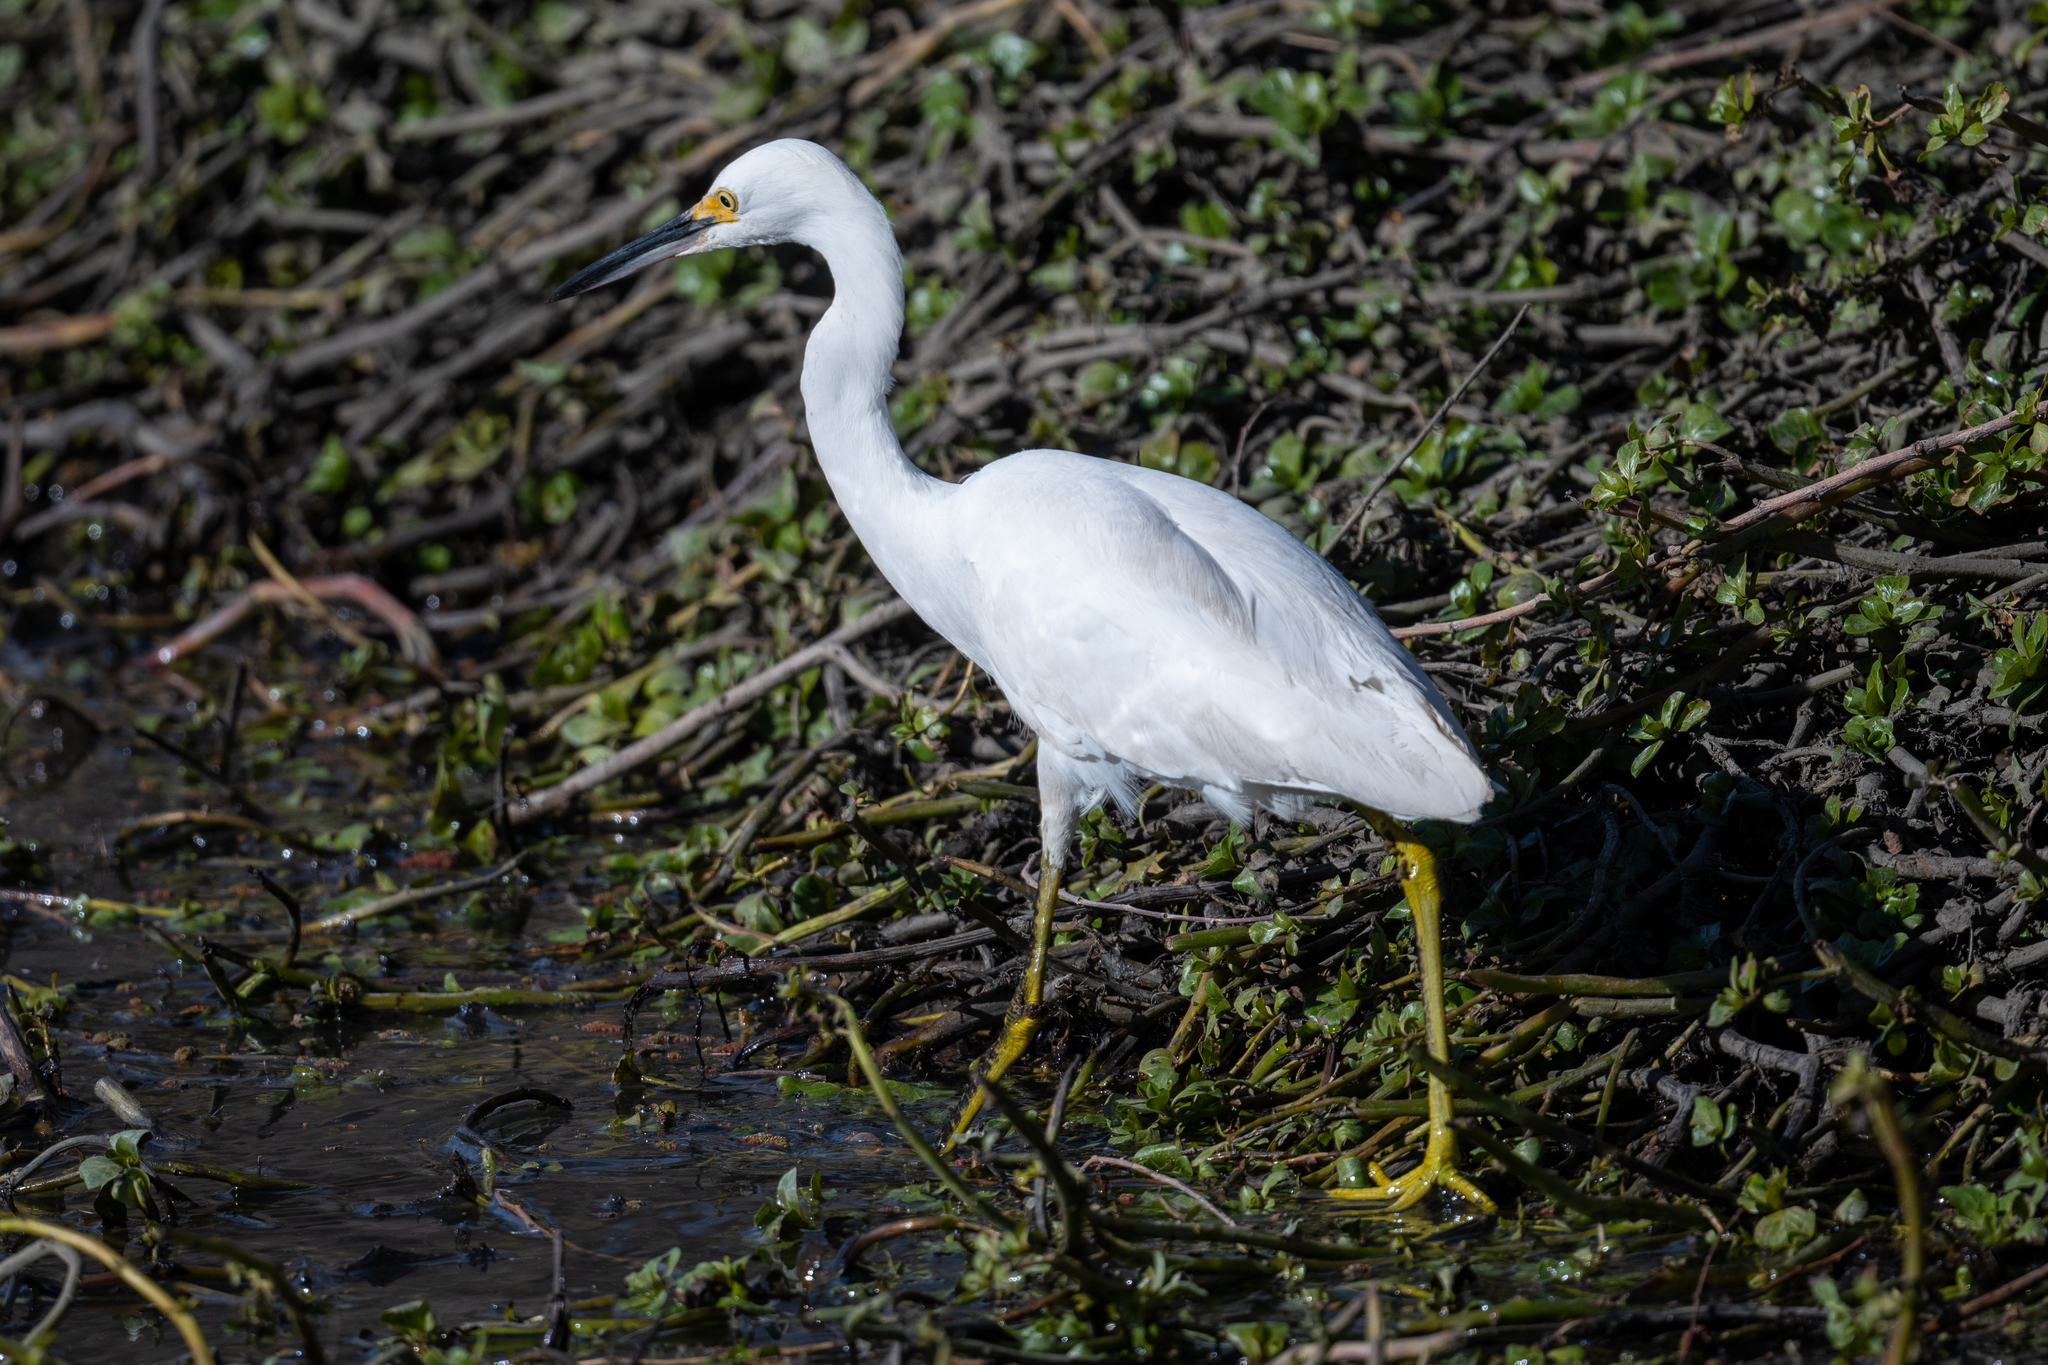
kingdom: Animalia
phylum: Chordata
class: Aves
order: Pelecaniformes
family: Ardeidae
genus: Egretta
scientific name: Egretta thula
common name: Snowy egret
